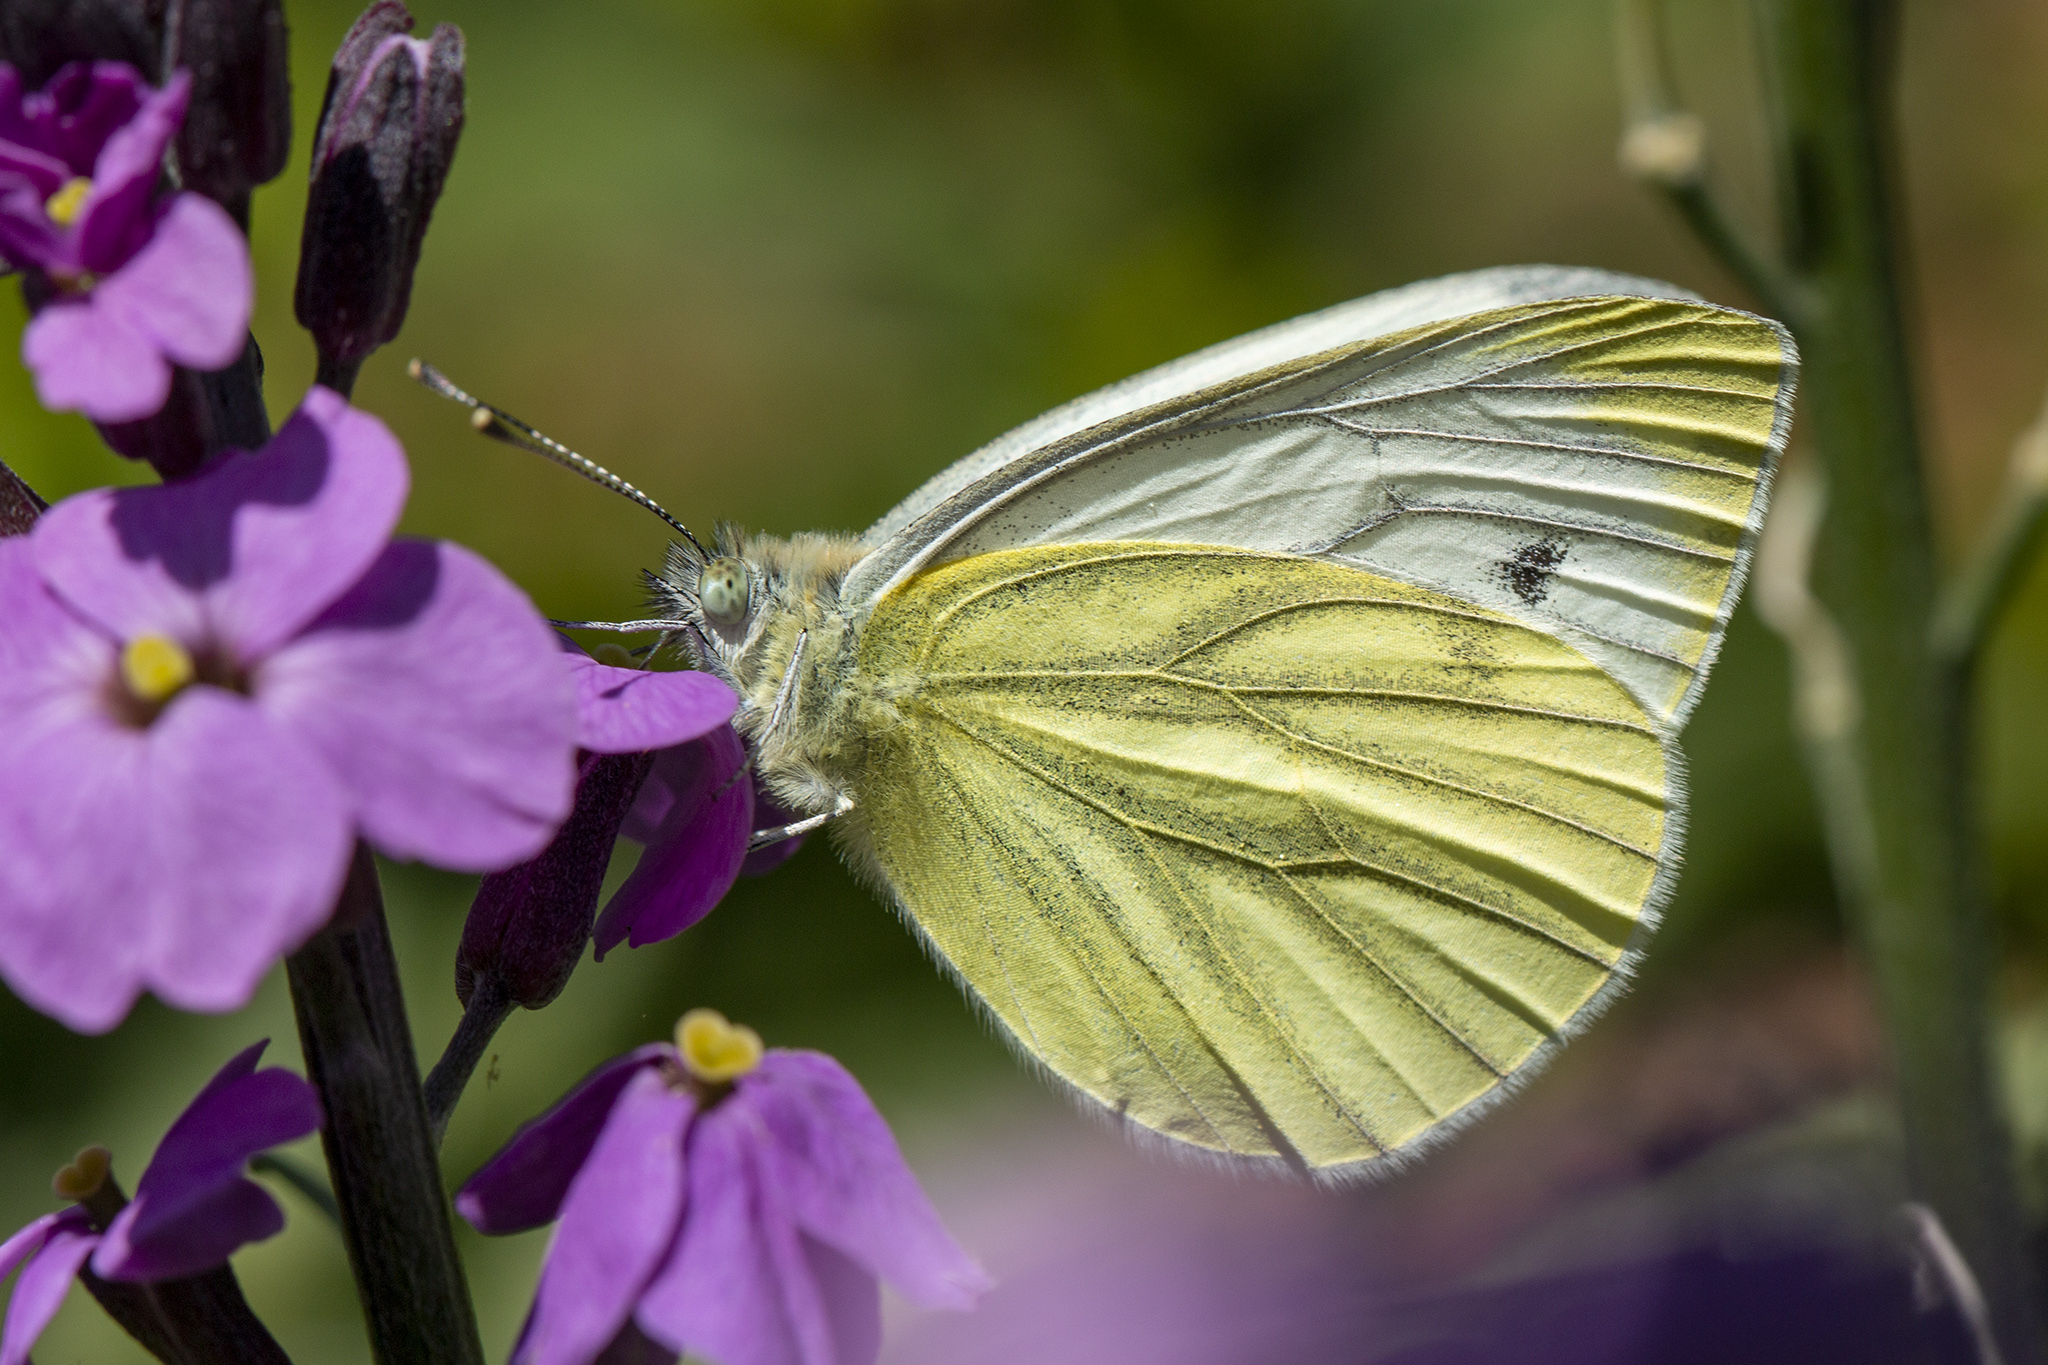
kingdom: Animalia
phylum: Arthropoda
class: Insecta
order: Lepidoptera
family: Pieridae
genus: Pieris
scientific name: Pieris napi
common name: Green-veined white
